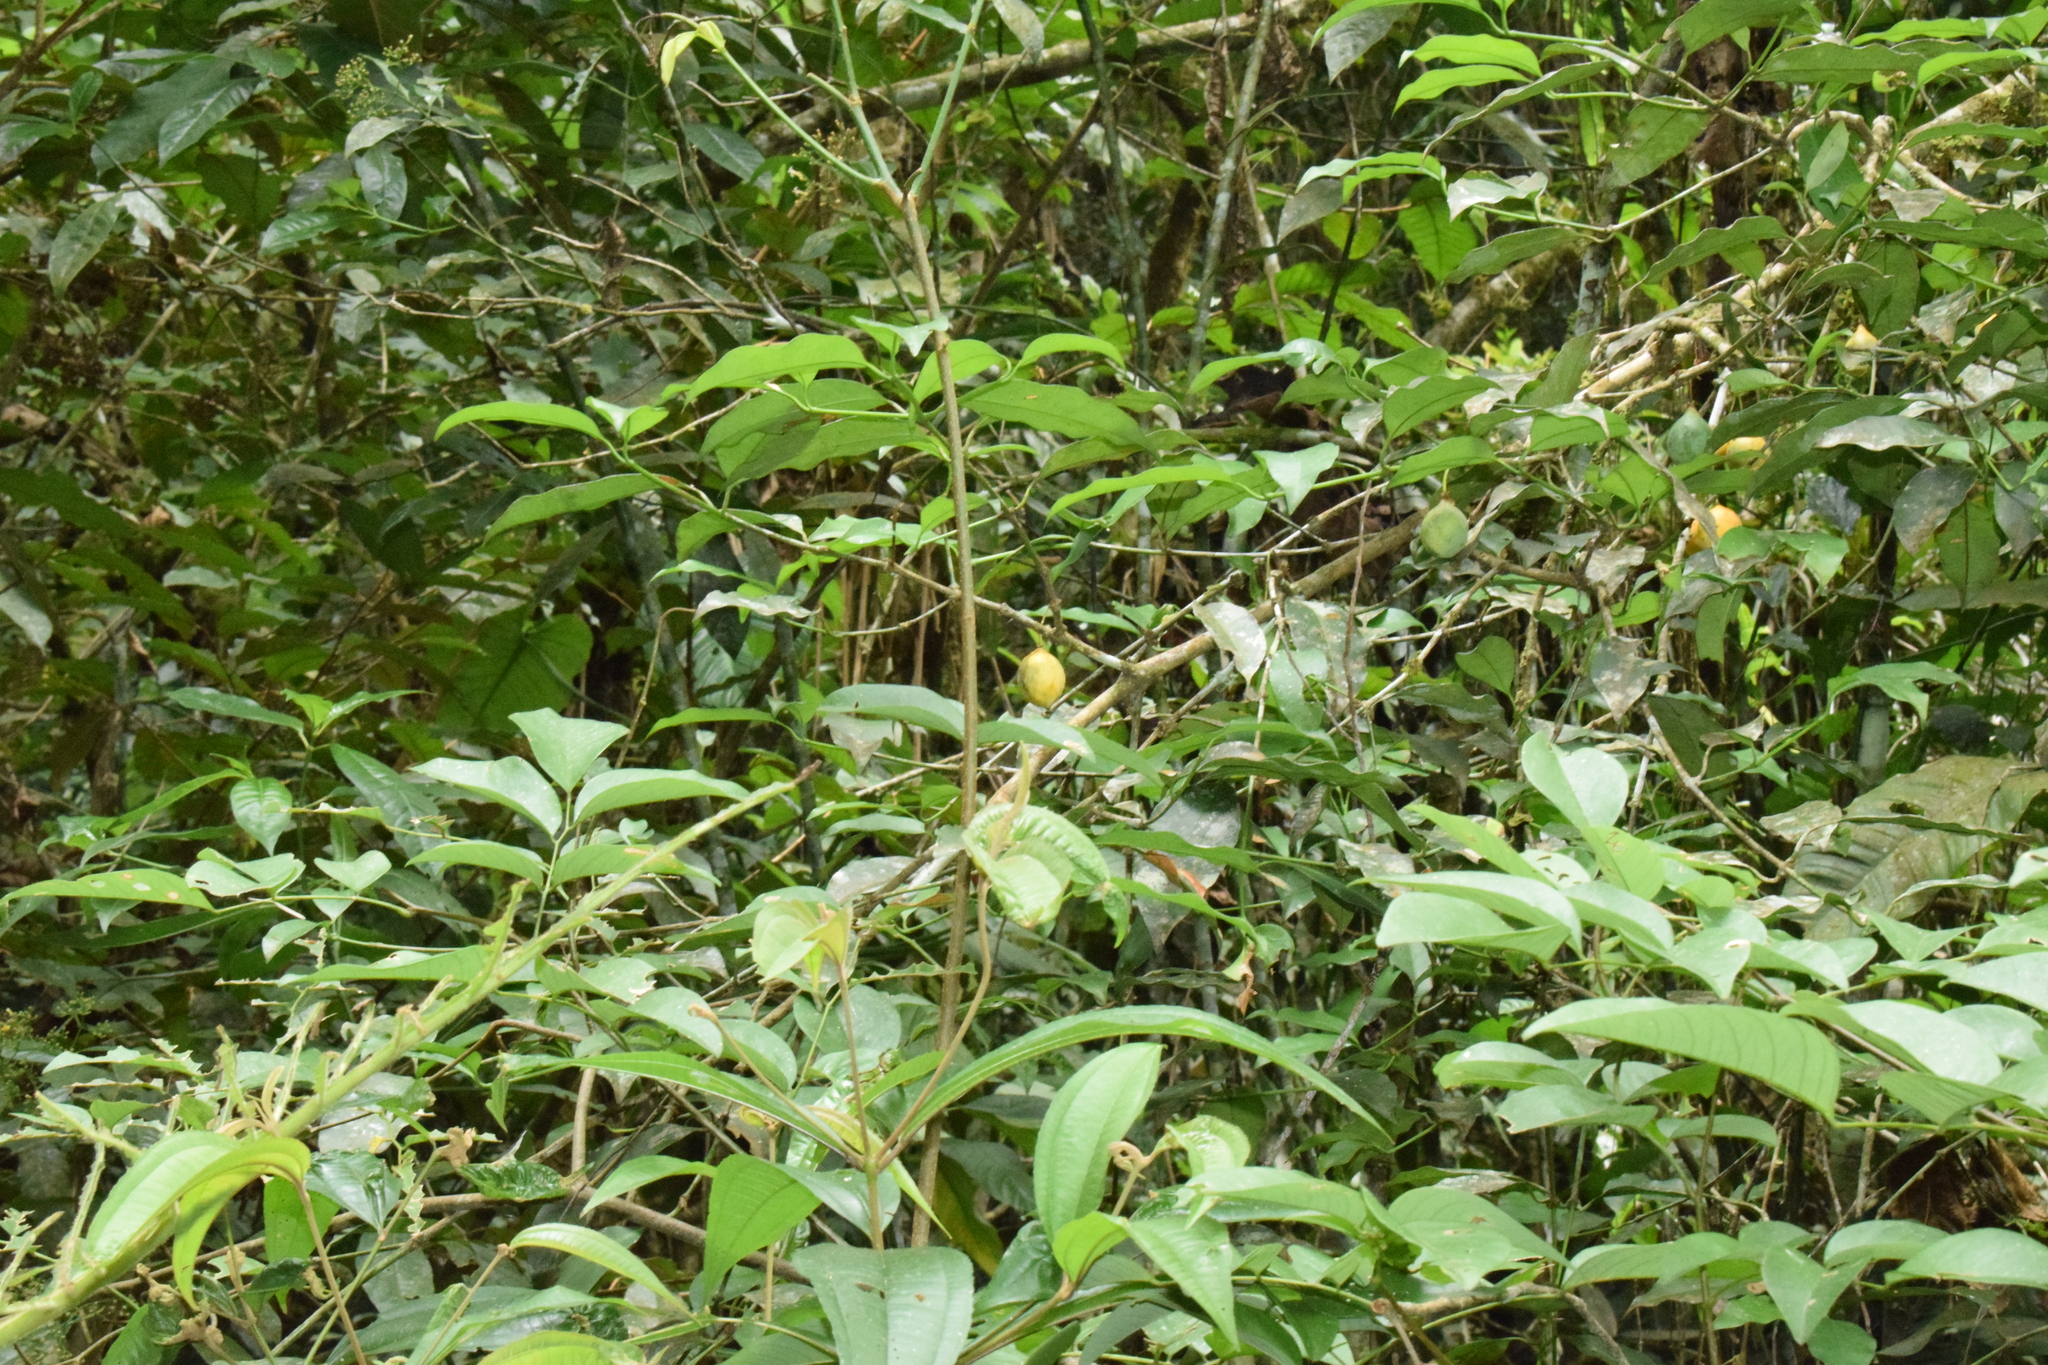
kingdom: Plantae
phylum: Tracheophyta
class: Magnoliopsida
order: Malpighiales
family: Clusiaceae
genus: Garcinia
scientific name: Garcinia gardneriana
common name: Achacha
